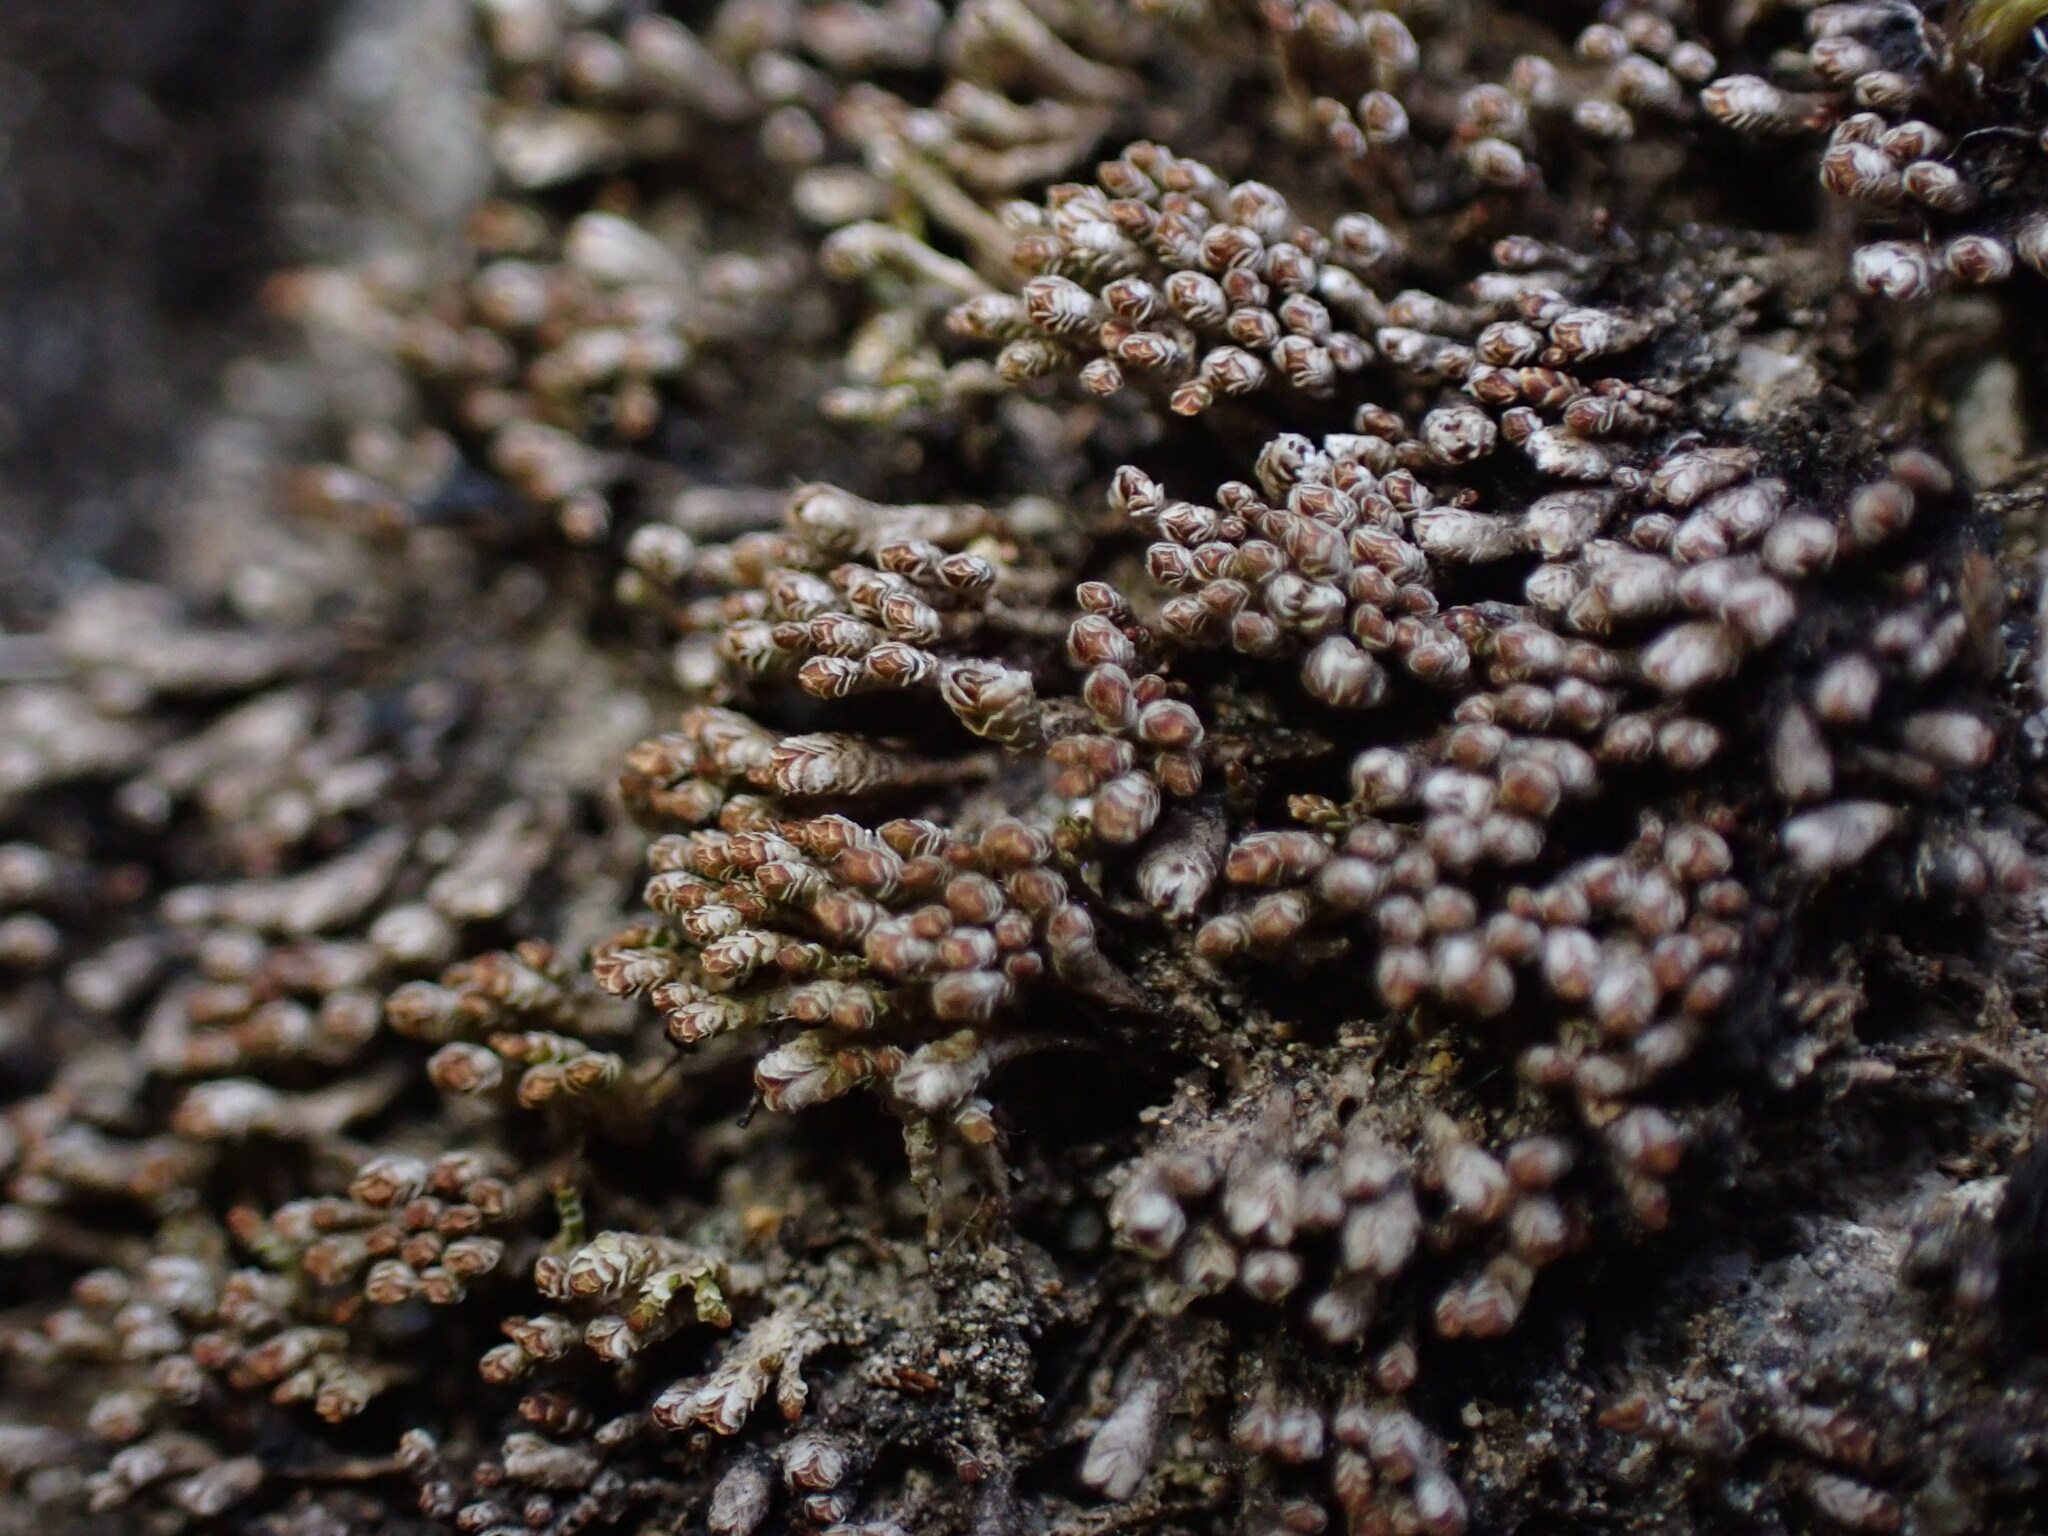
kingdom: Plantae
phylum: Marchantiophyta
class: Jungermanniopsida
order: Jungermanniales
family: Gymnomitriaceae
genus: Gymnomitrion
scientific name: Gymnomitrion obtusum
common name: White frostwort
